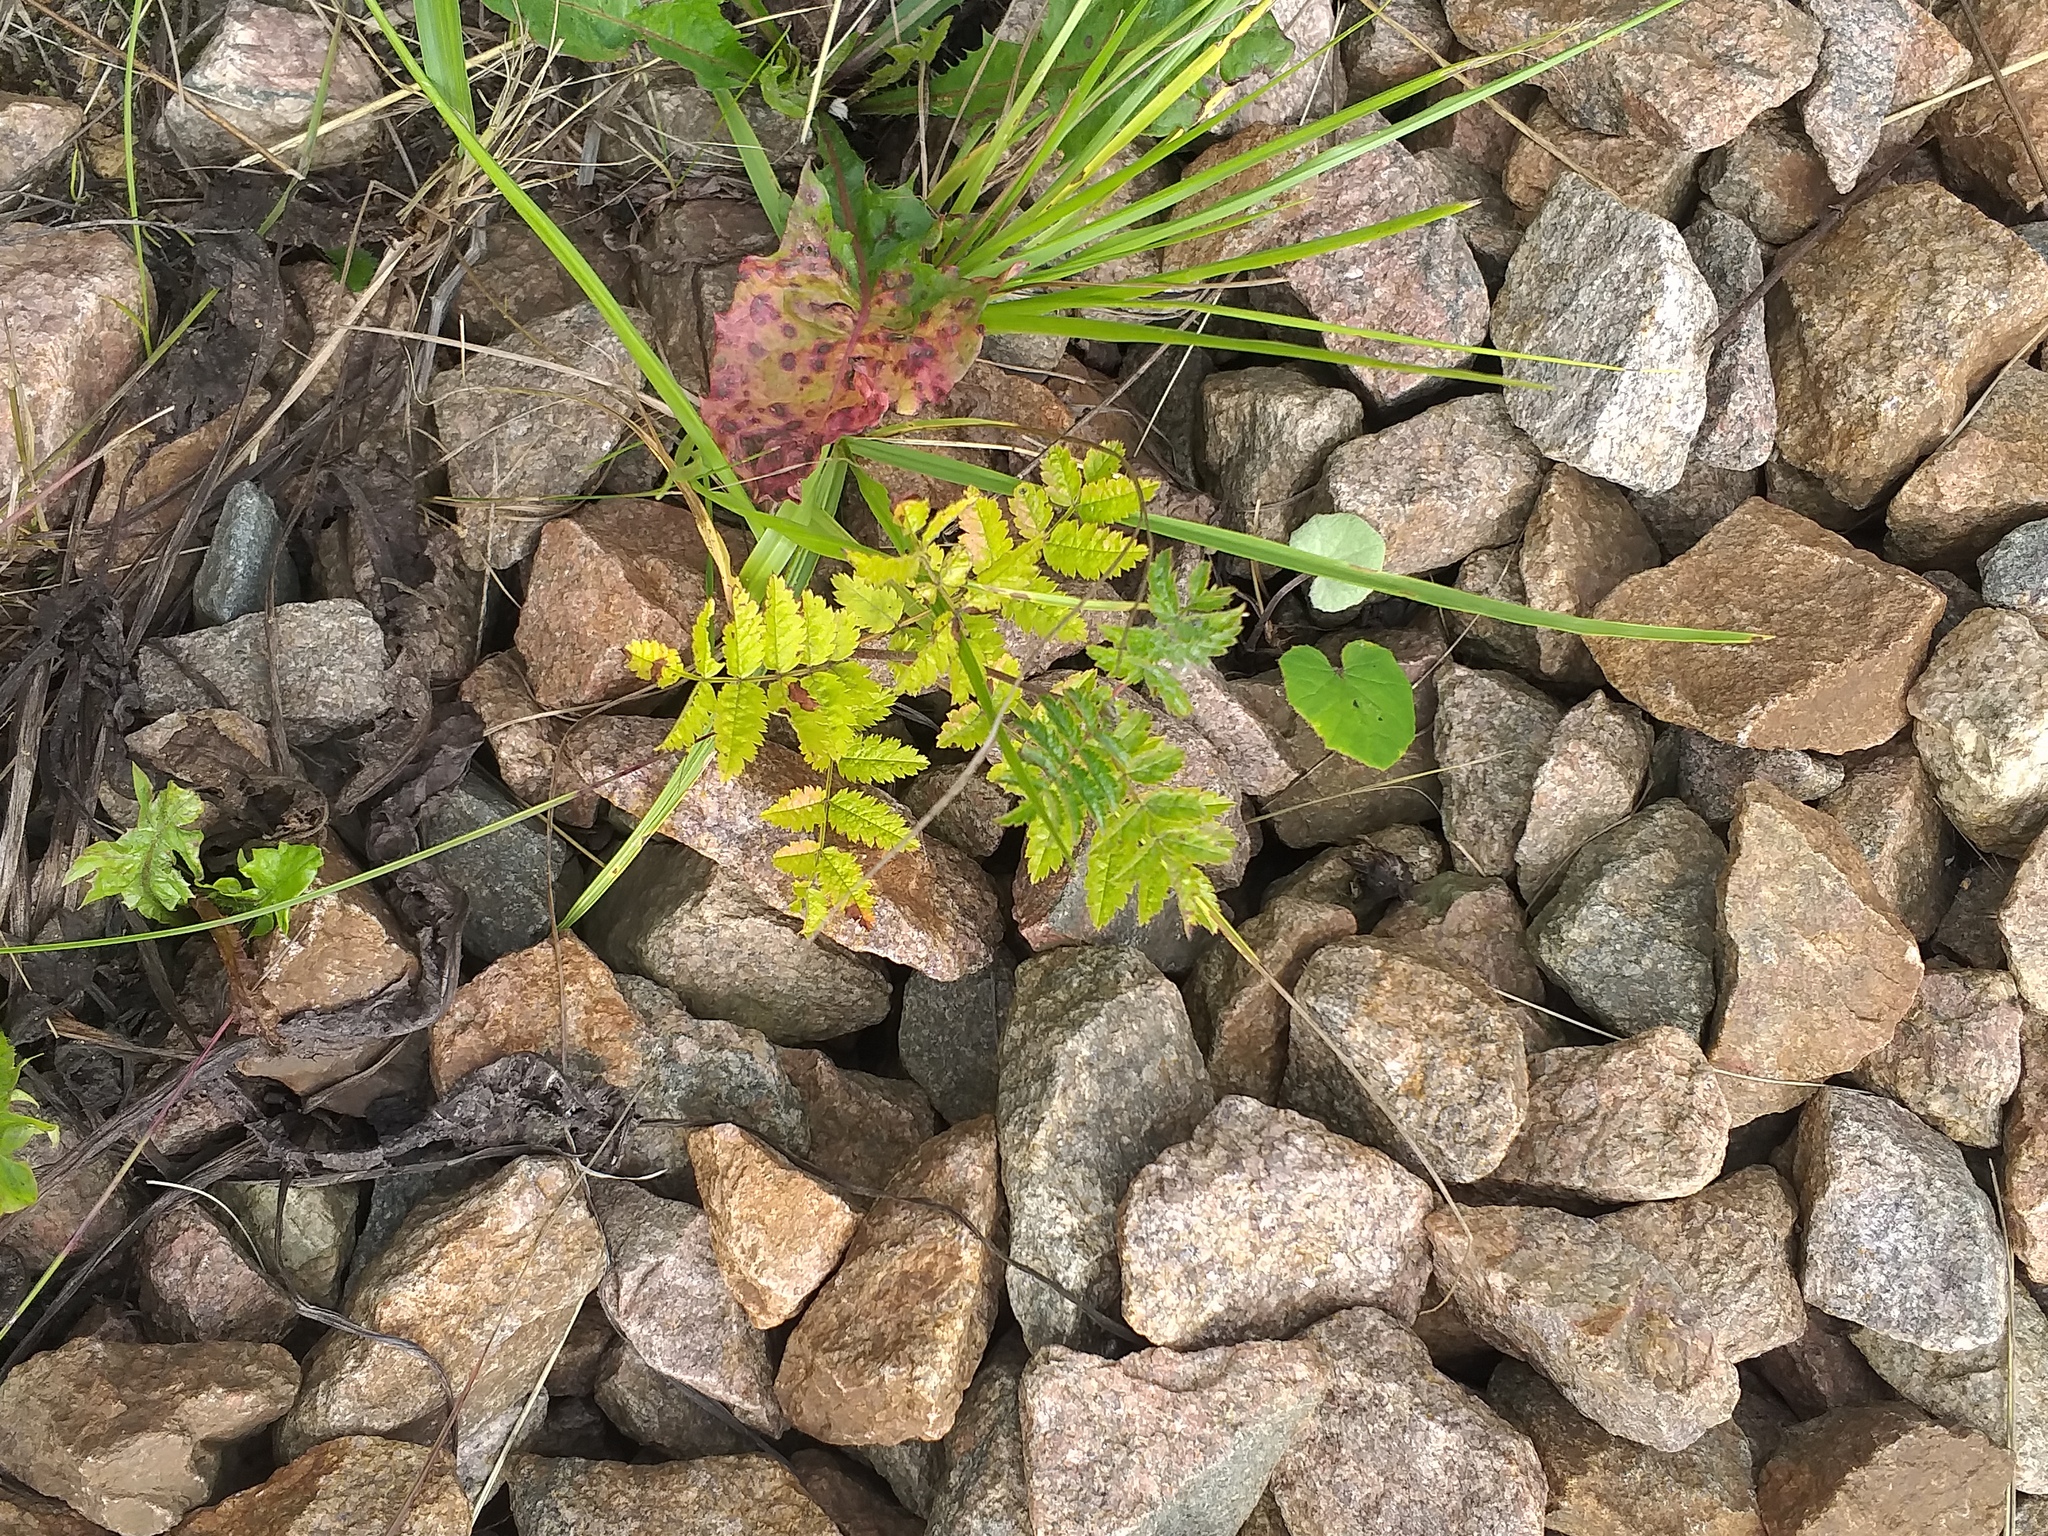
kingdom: Plantae
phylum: Tracheophyta
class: Magnoliopsida
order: Rosales
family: Rosaceae
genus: Sorbus
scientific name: Sorbus aucuparia
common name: Rowan
